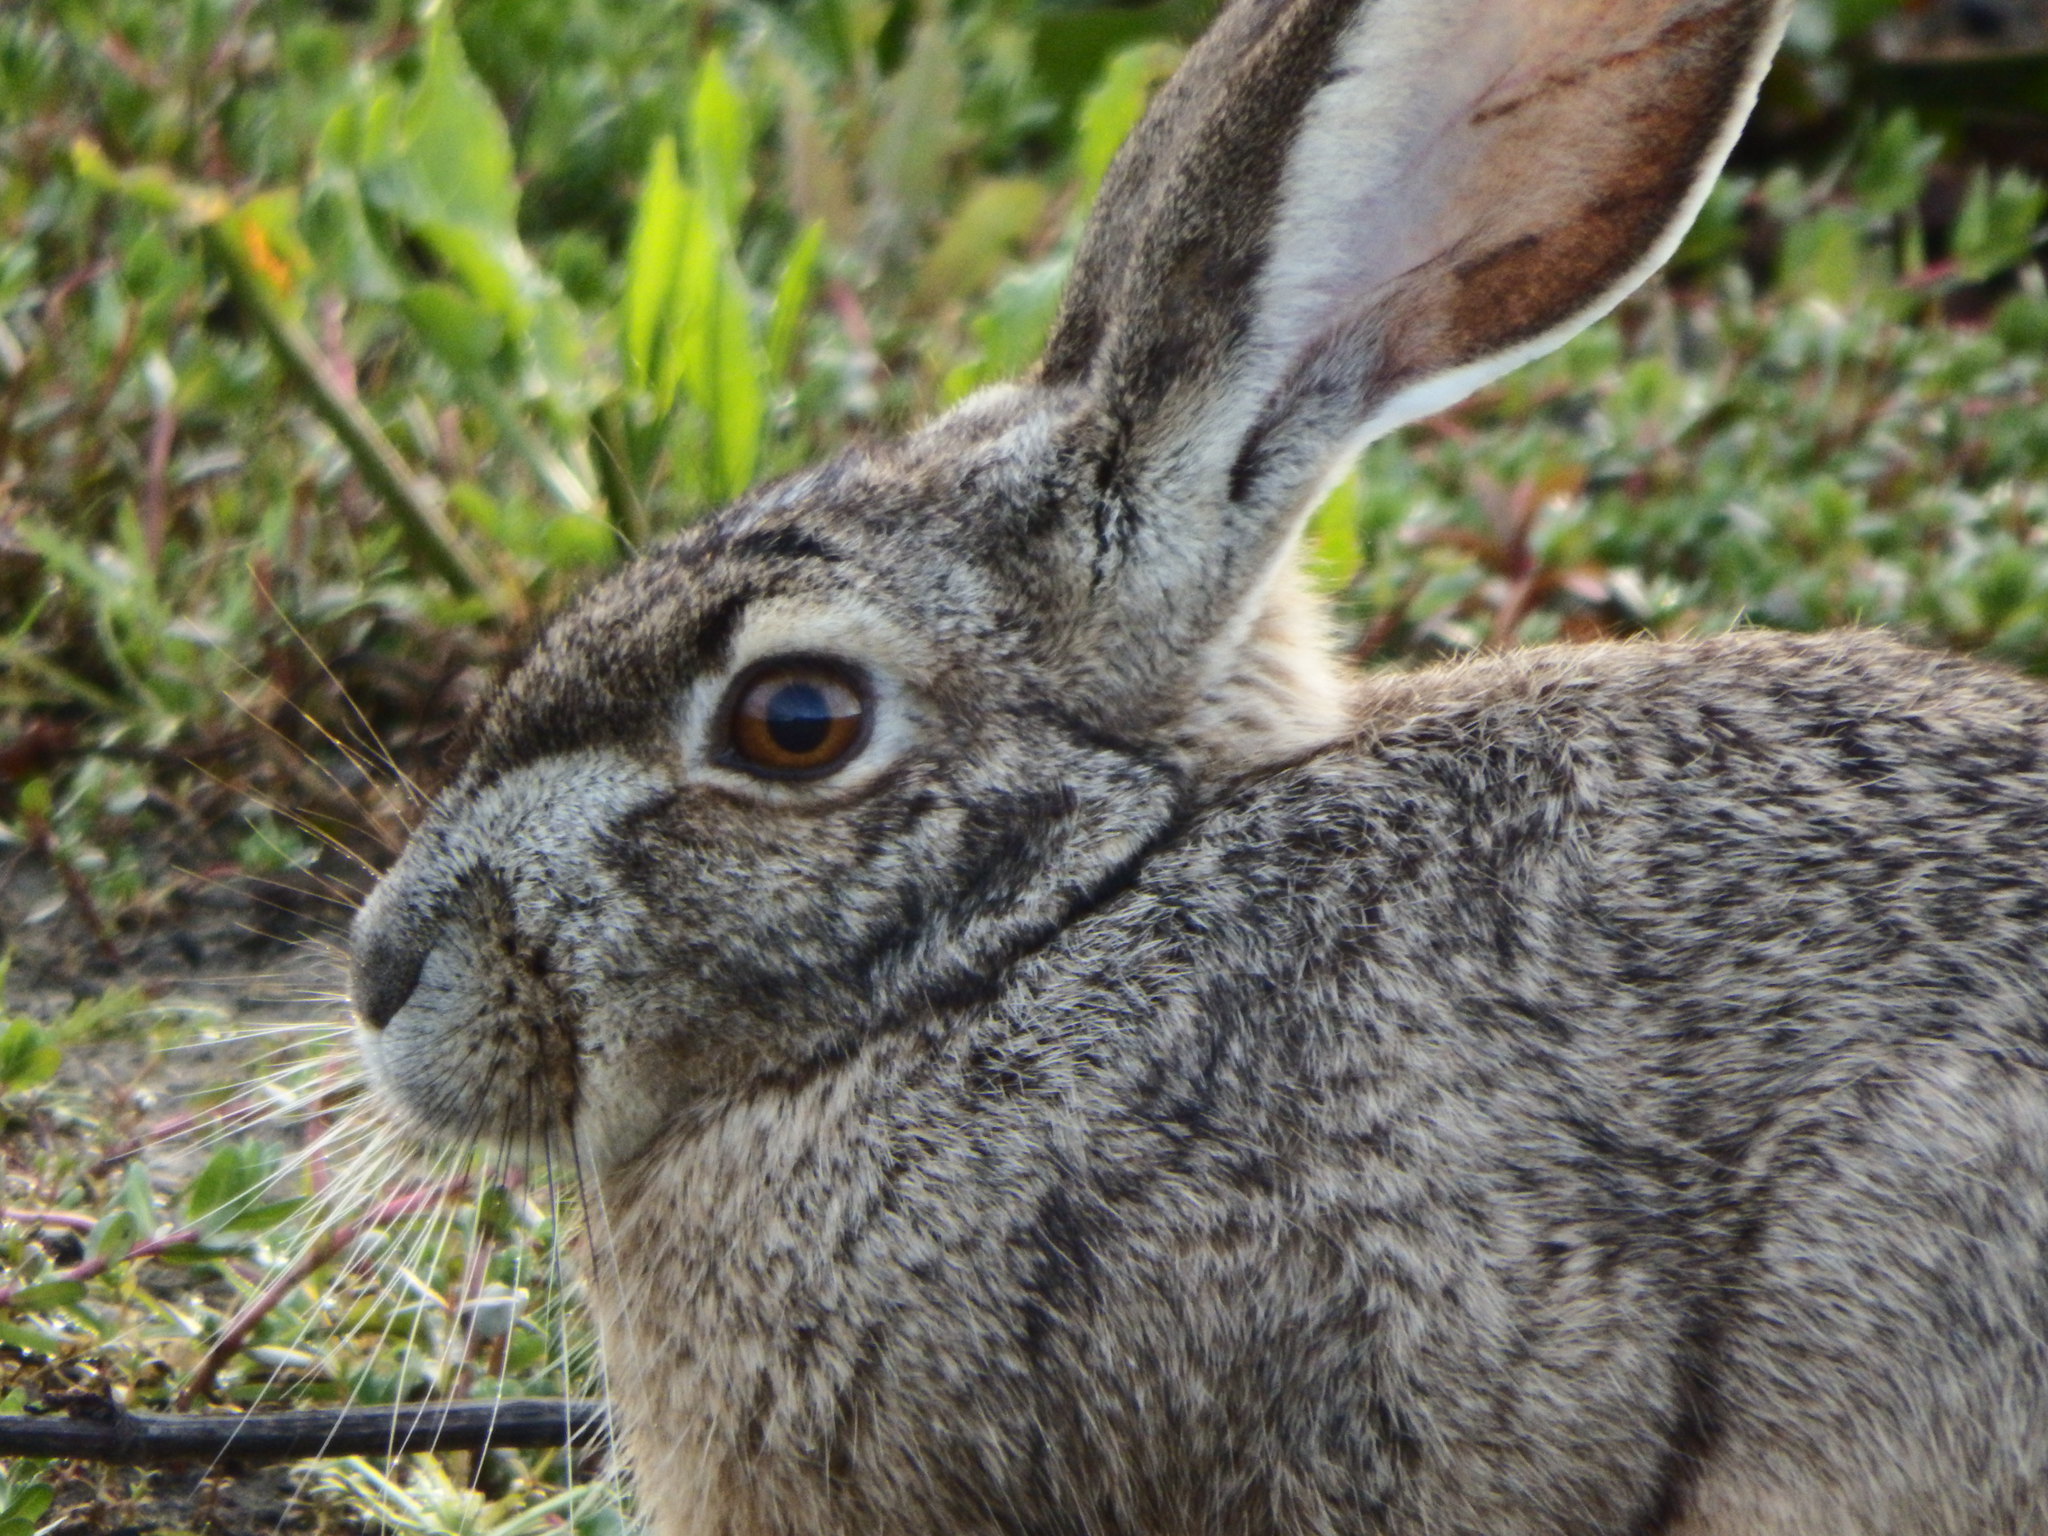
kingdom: Animalia
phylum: Chordata
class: Mammalia
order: Lagomorpha
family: Leporidae
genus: Lepus
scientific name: Lepus californicus
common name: Black-tailed jackrabbit
